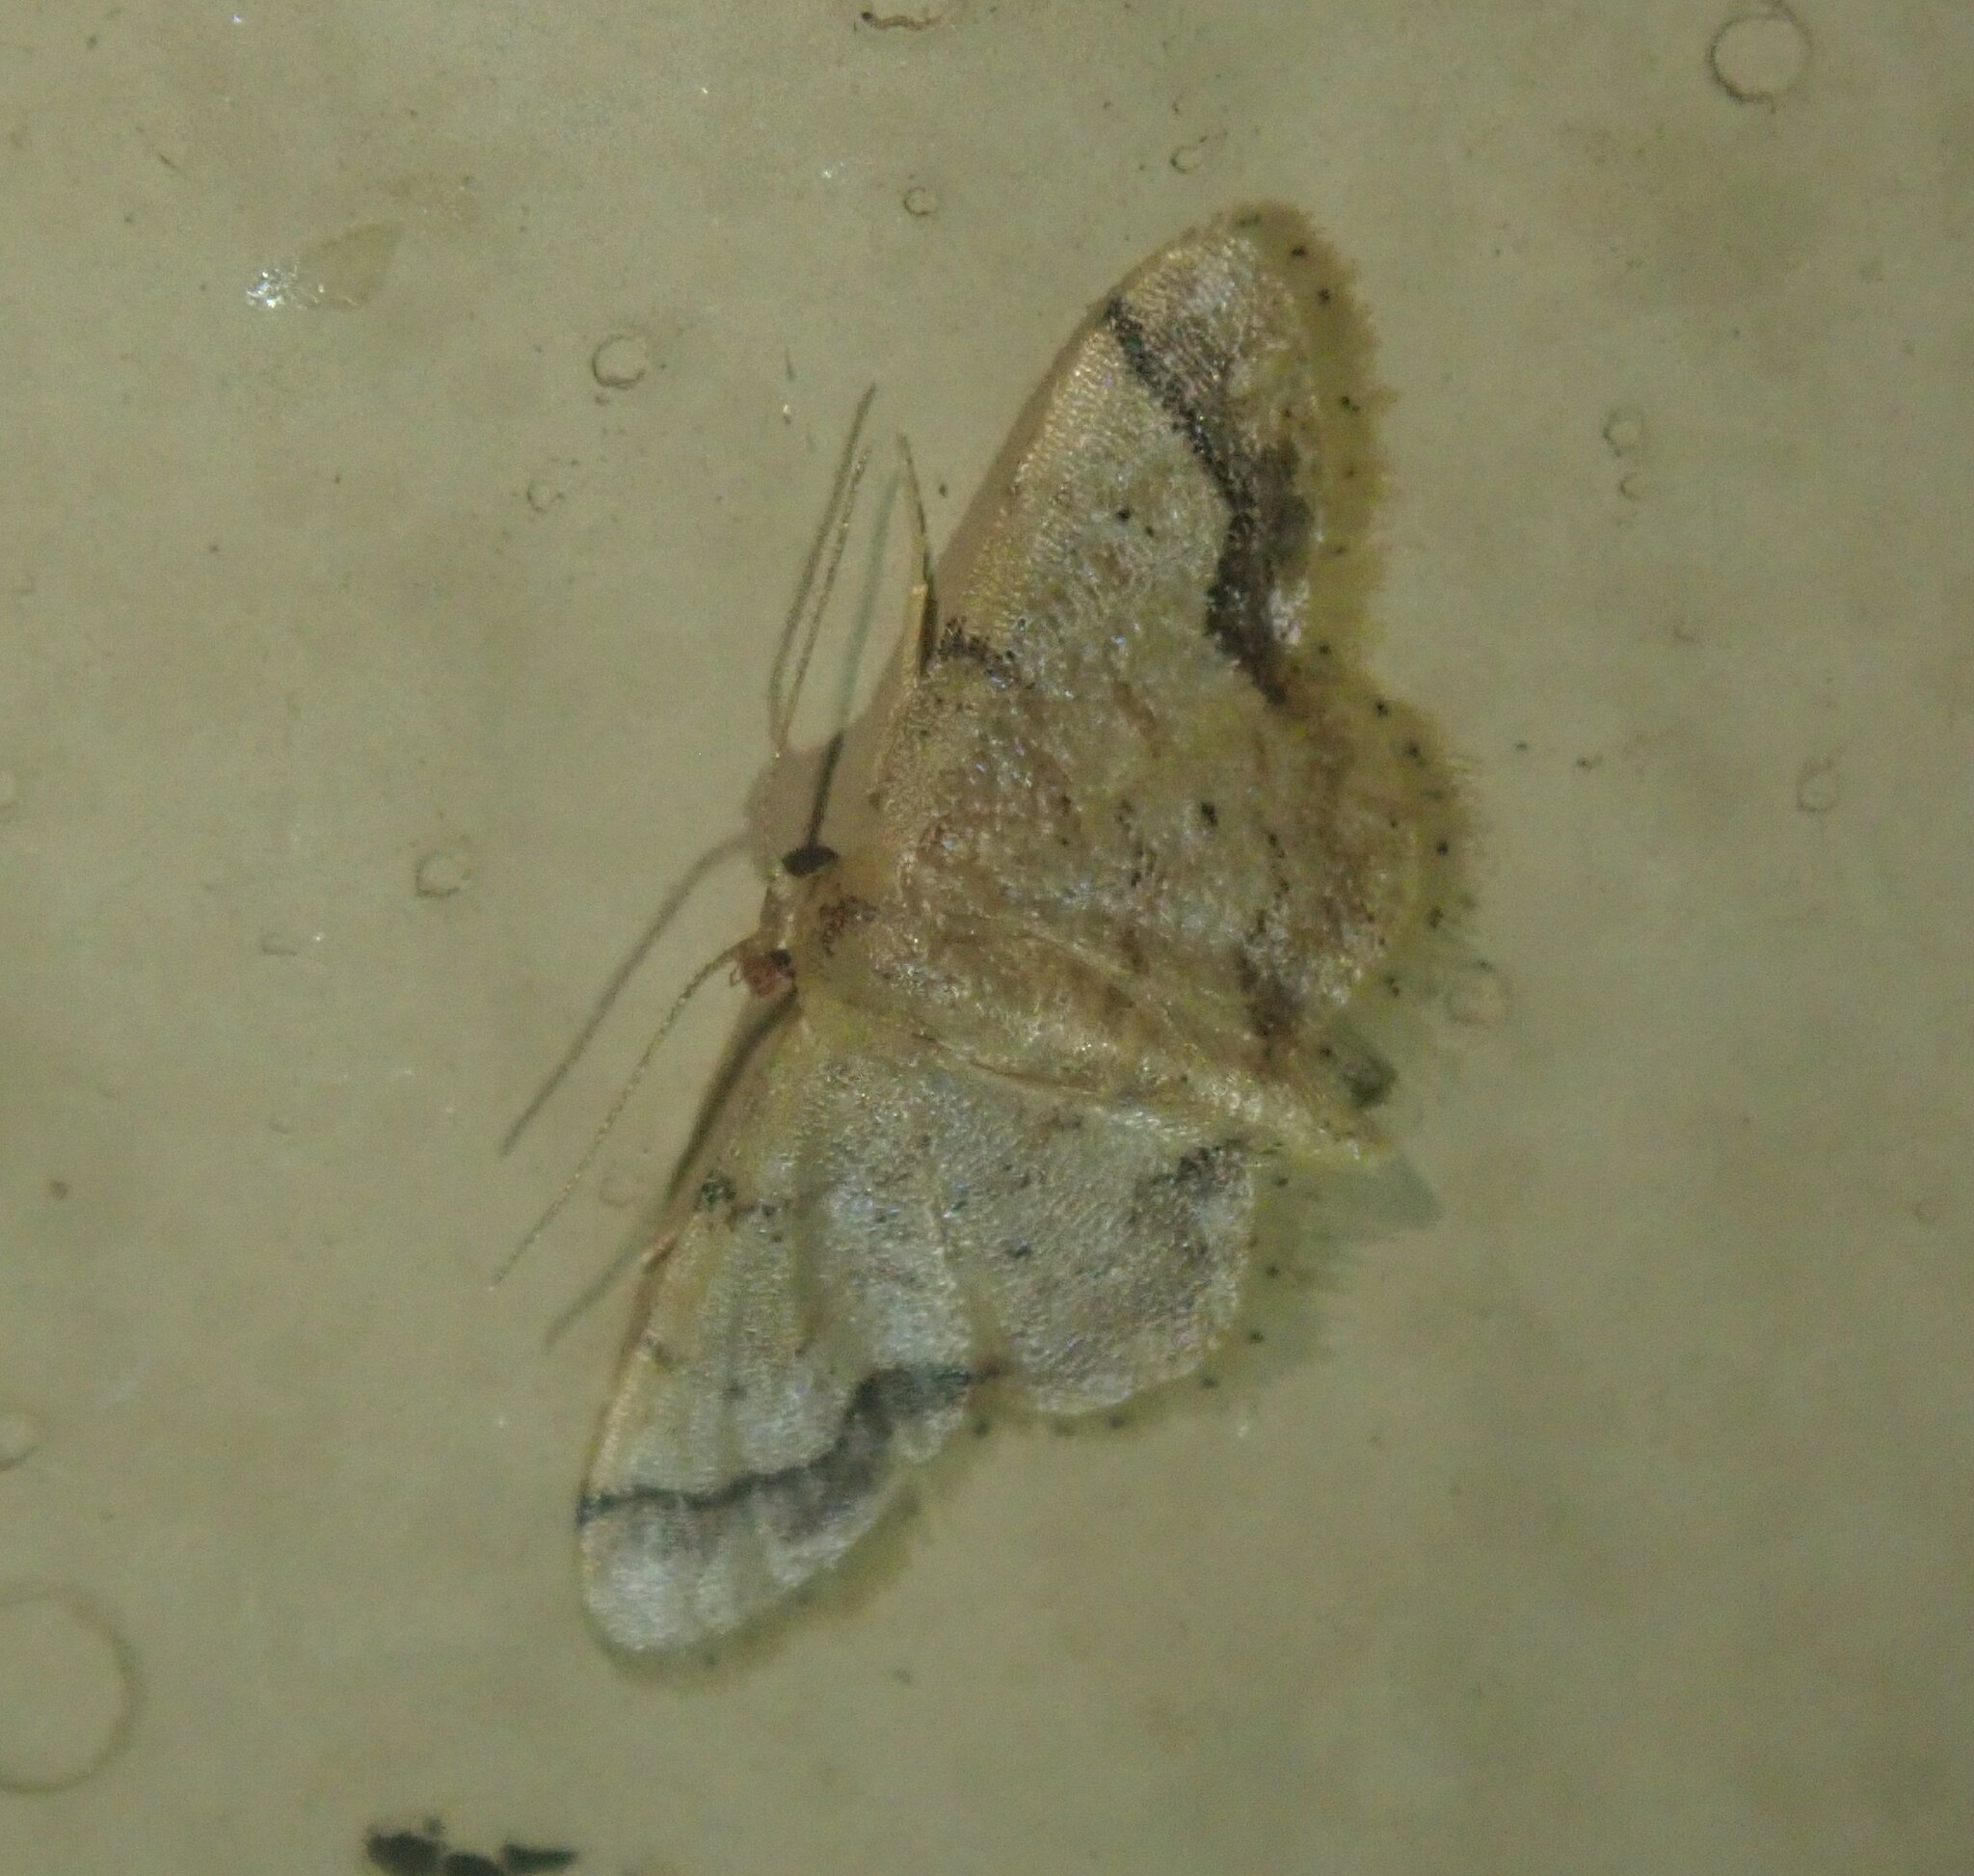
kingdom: Animalia
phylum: Arthropoda
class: Insecta
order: Lepidoptera
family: Geometridae
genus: Idaea
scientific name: Idaea squamulata
